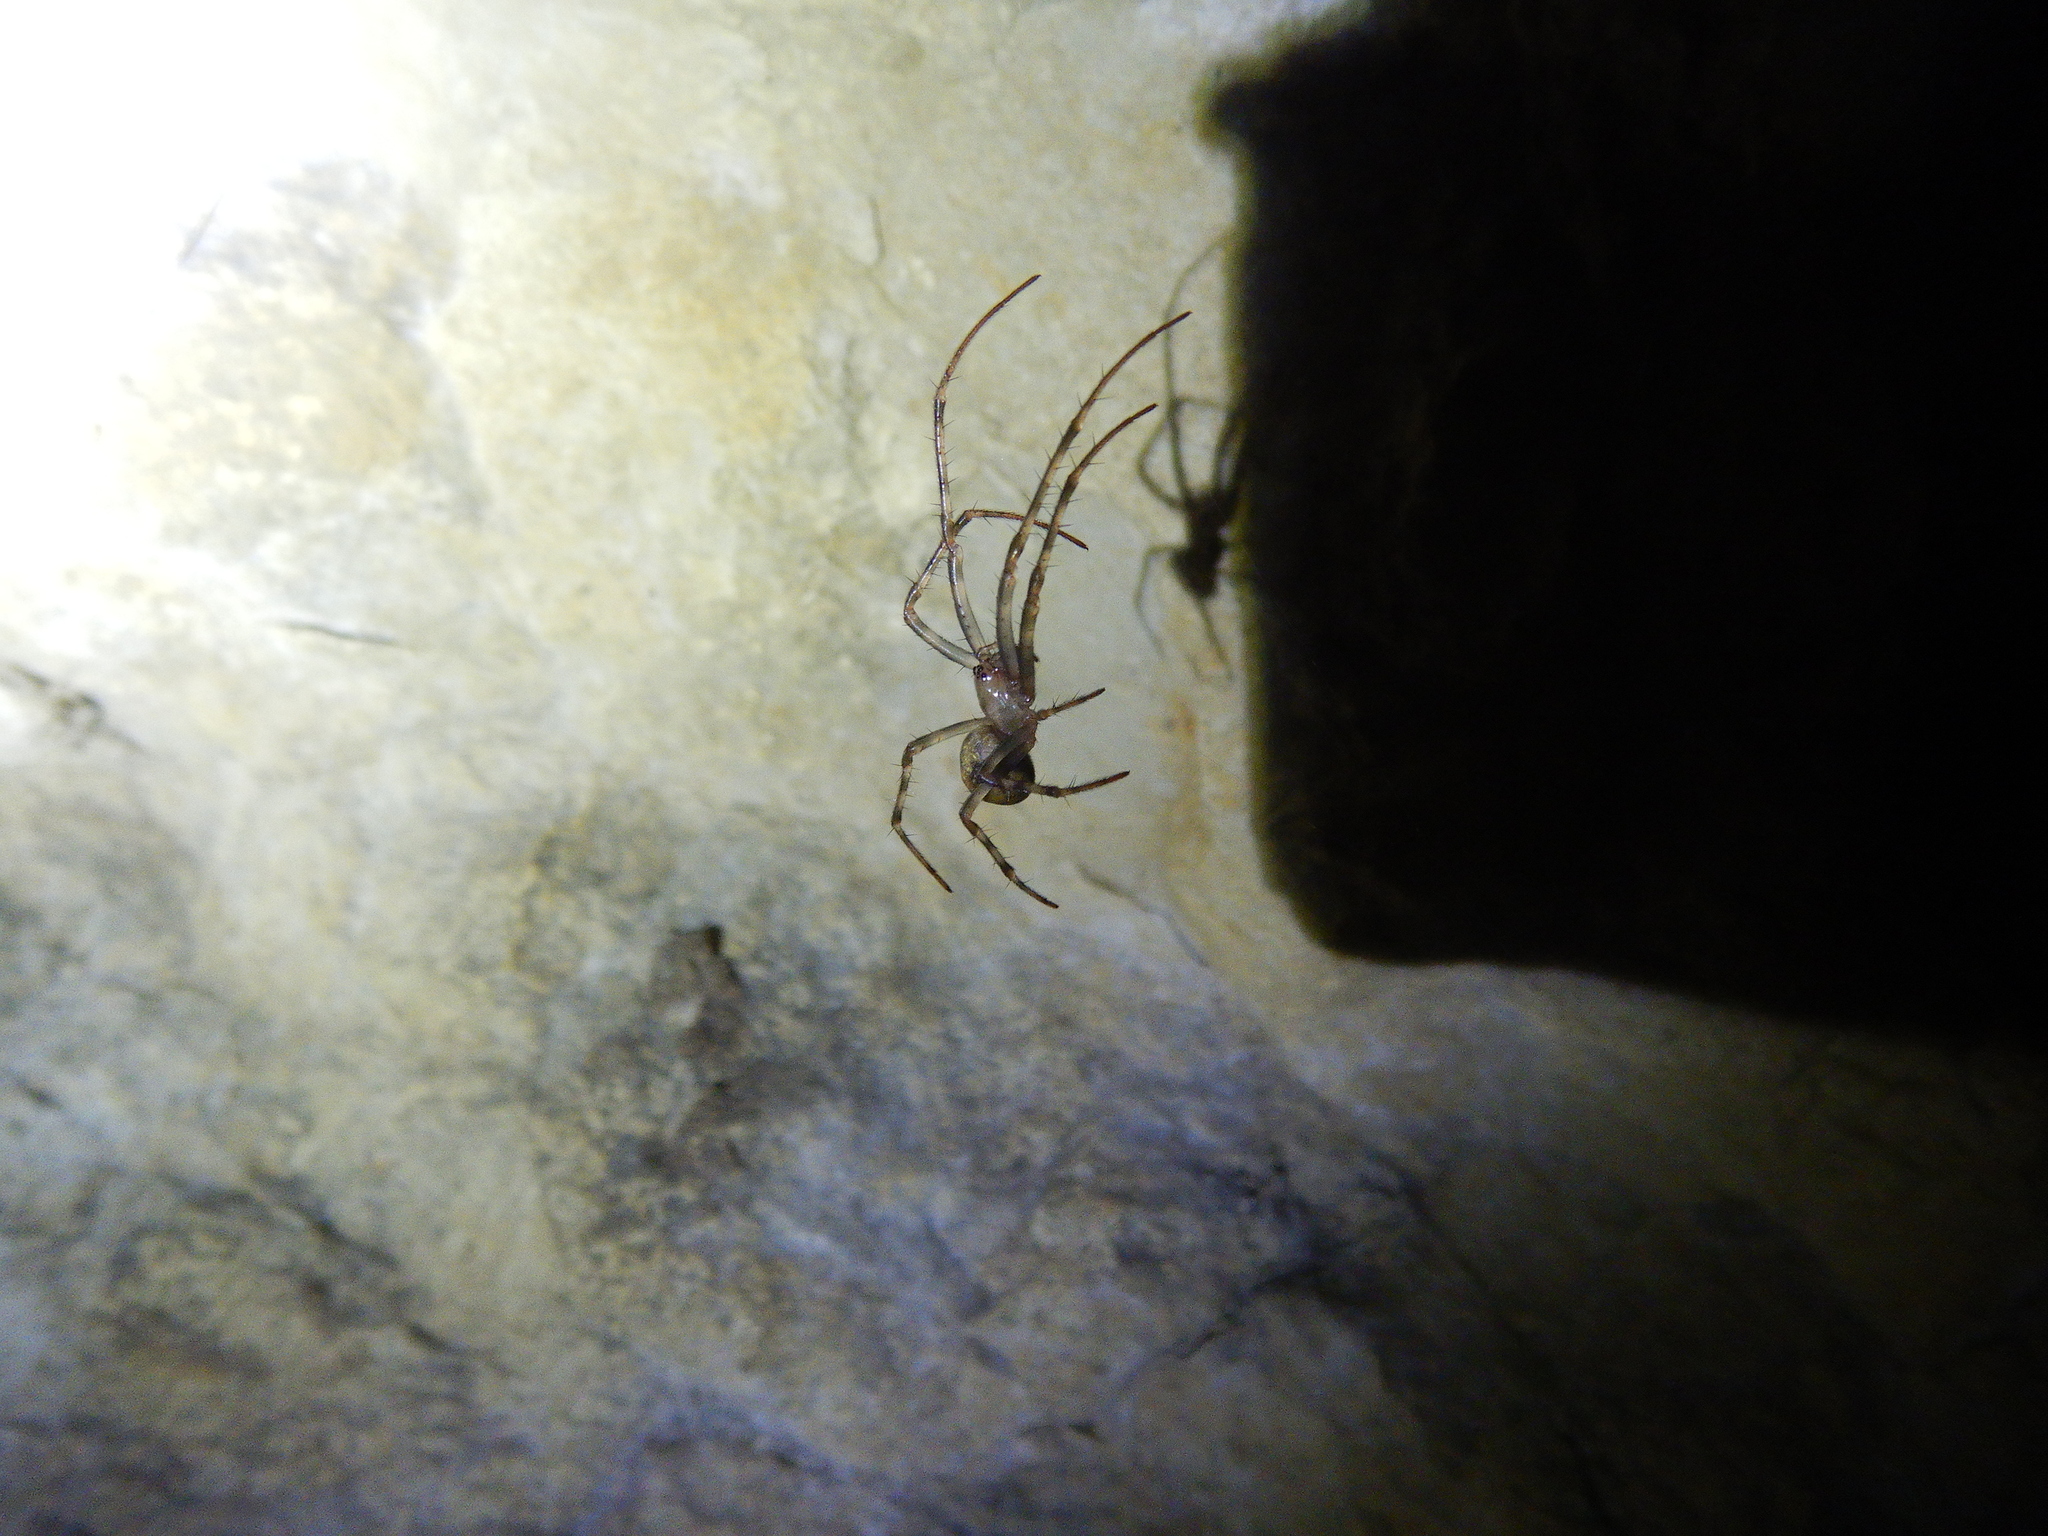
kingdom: Animalia
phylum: Arthropoda
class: Arachnida
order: Araneae
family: Tetragnathidae
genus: Meta
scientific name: Meta menardi
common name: Cave spider
